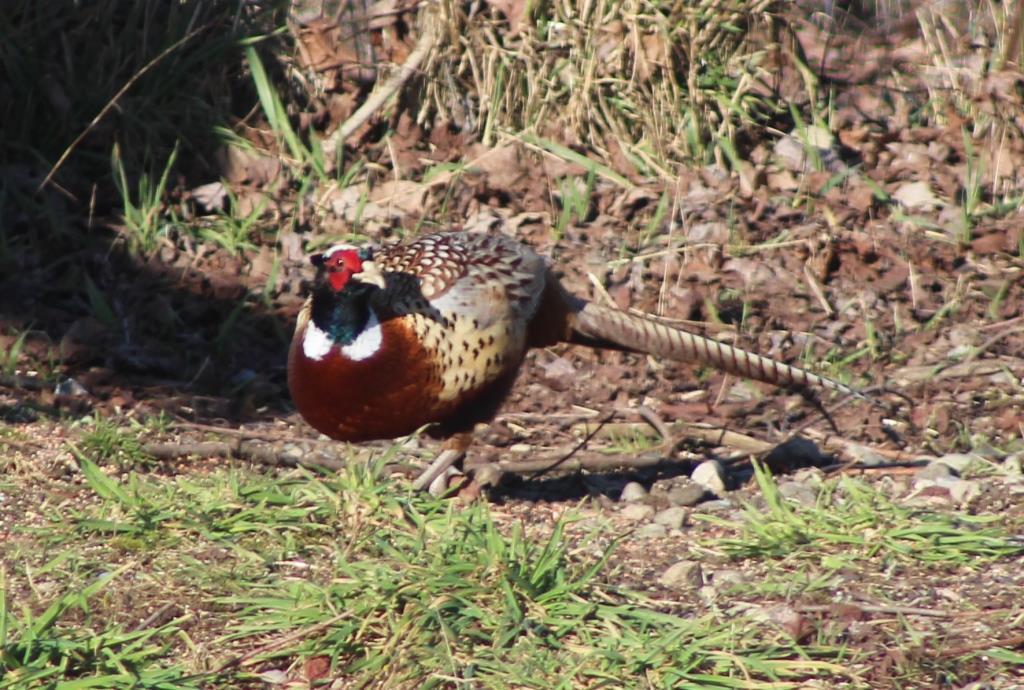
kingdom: Animalia
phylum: Chordata
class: Aves
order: Galliformes
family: Phasianidae
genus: Phasianus
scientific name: Phasianus colchicus
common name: Common pheasant
